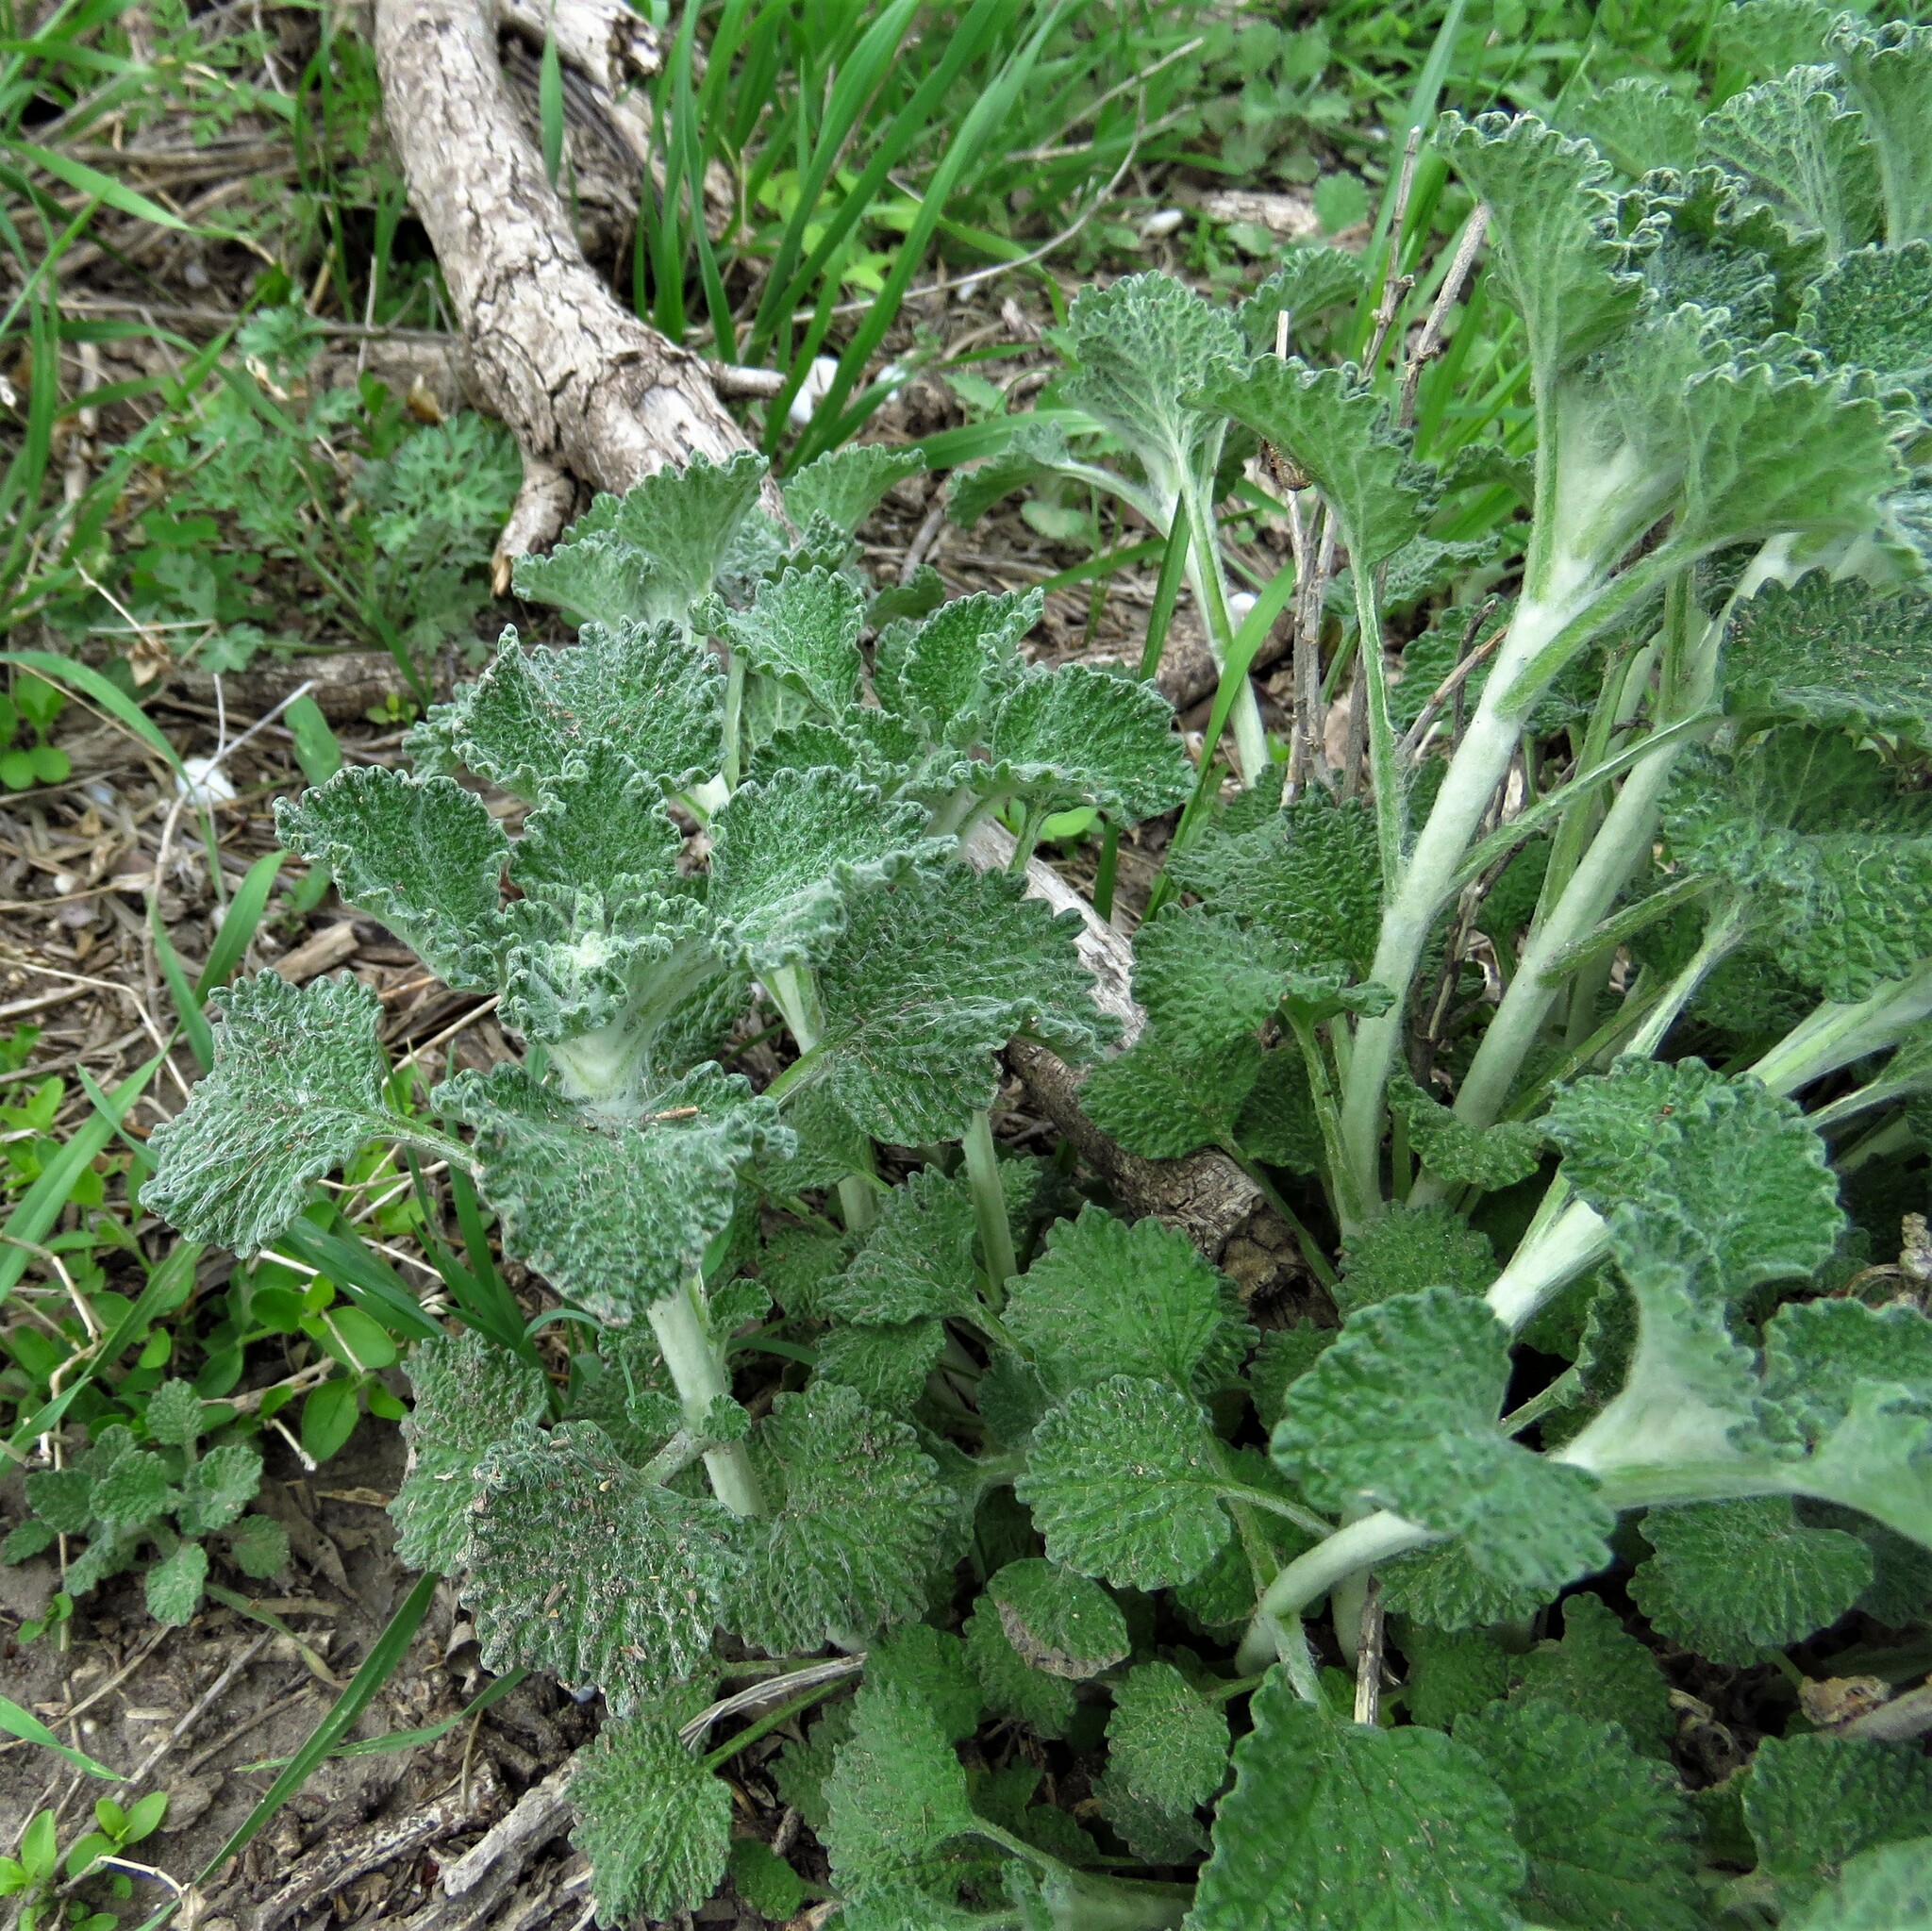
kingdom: Plantae
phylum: Tracheophyta
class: Magnoliopsida
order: Lamiales
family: Lamiaceae
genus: Marrubium
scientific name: Marrubium vulgare
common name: Horehound
